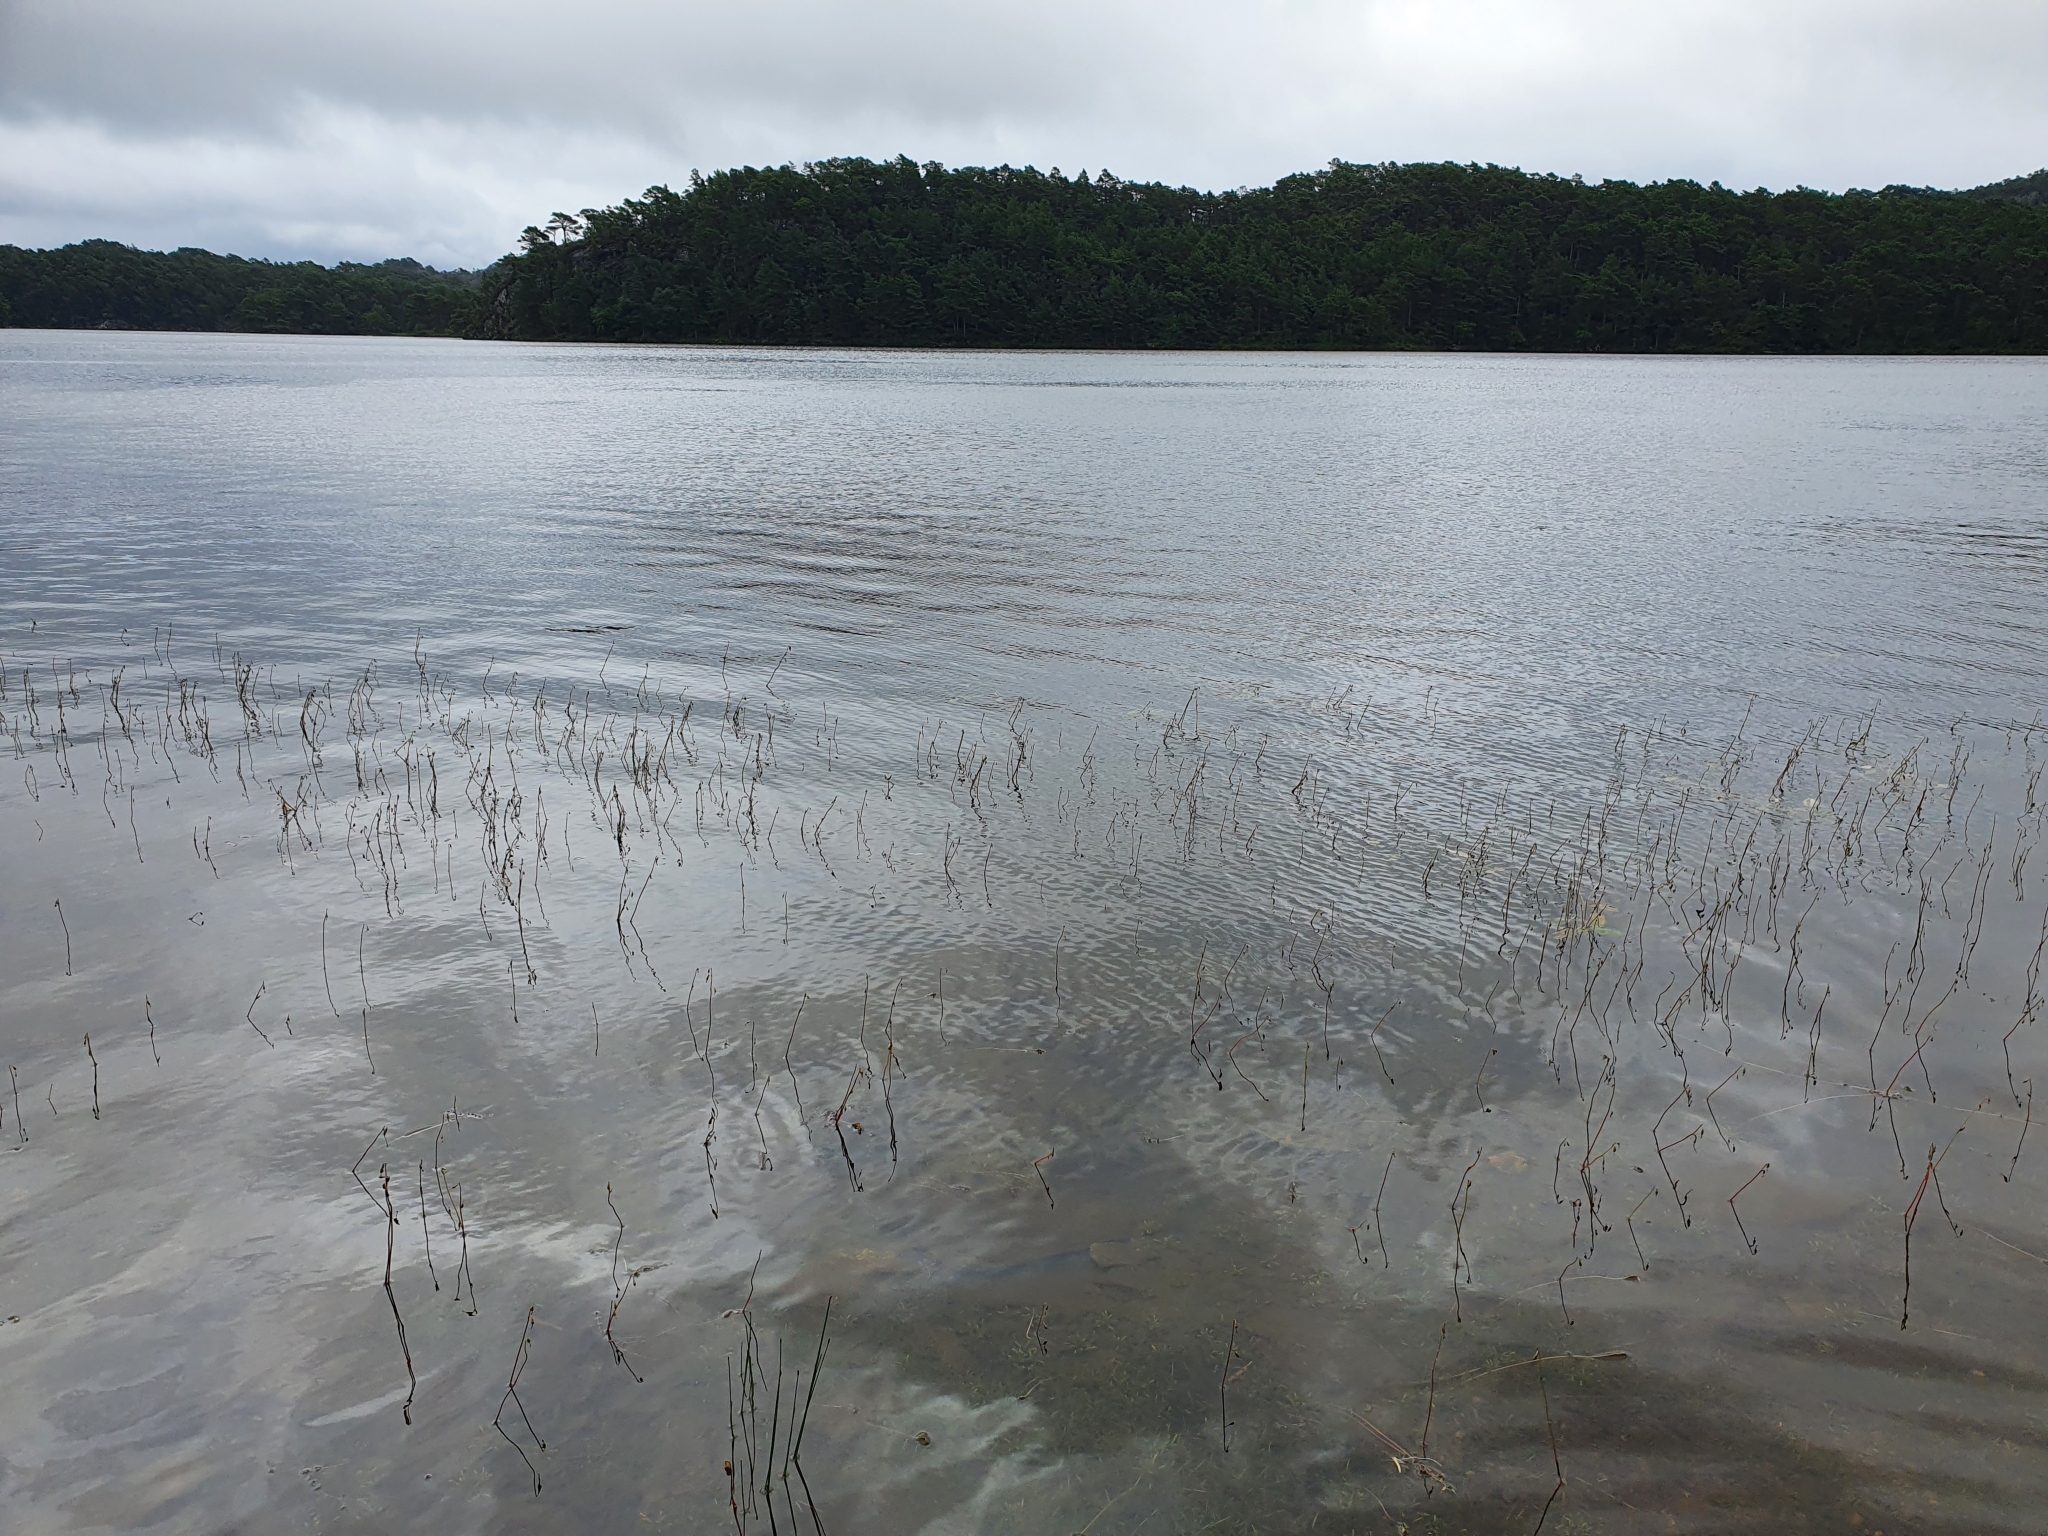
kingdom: Plantae
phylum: Tracheophyta
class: Magnoliopsida
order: Asterales
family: Campanulaceae
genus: Lobelia
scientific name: Lobelia dortmanna
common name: Water lobelia
